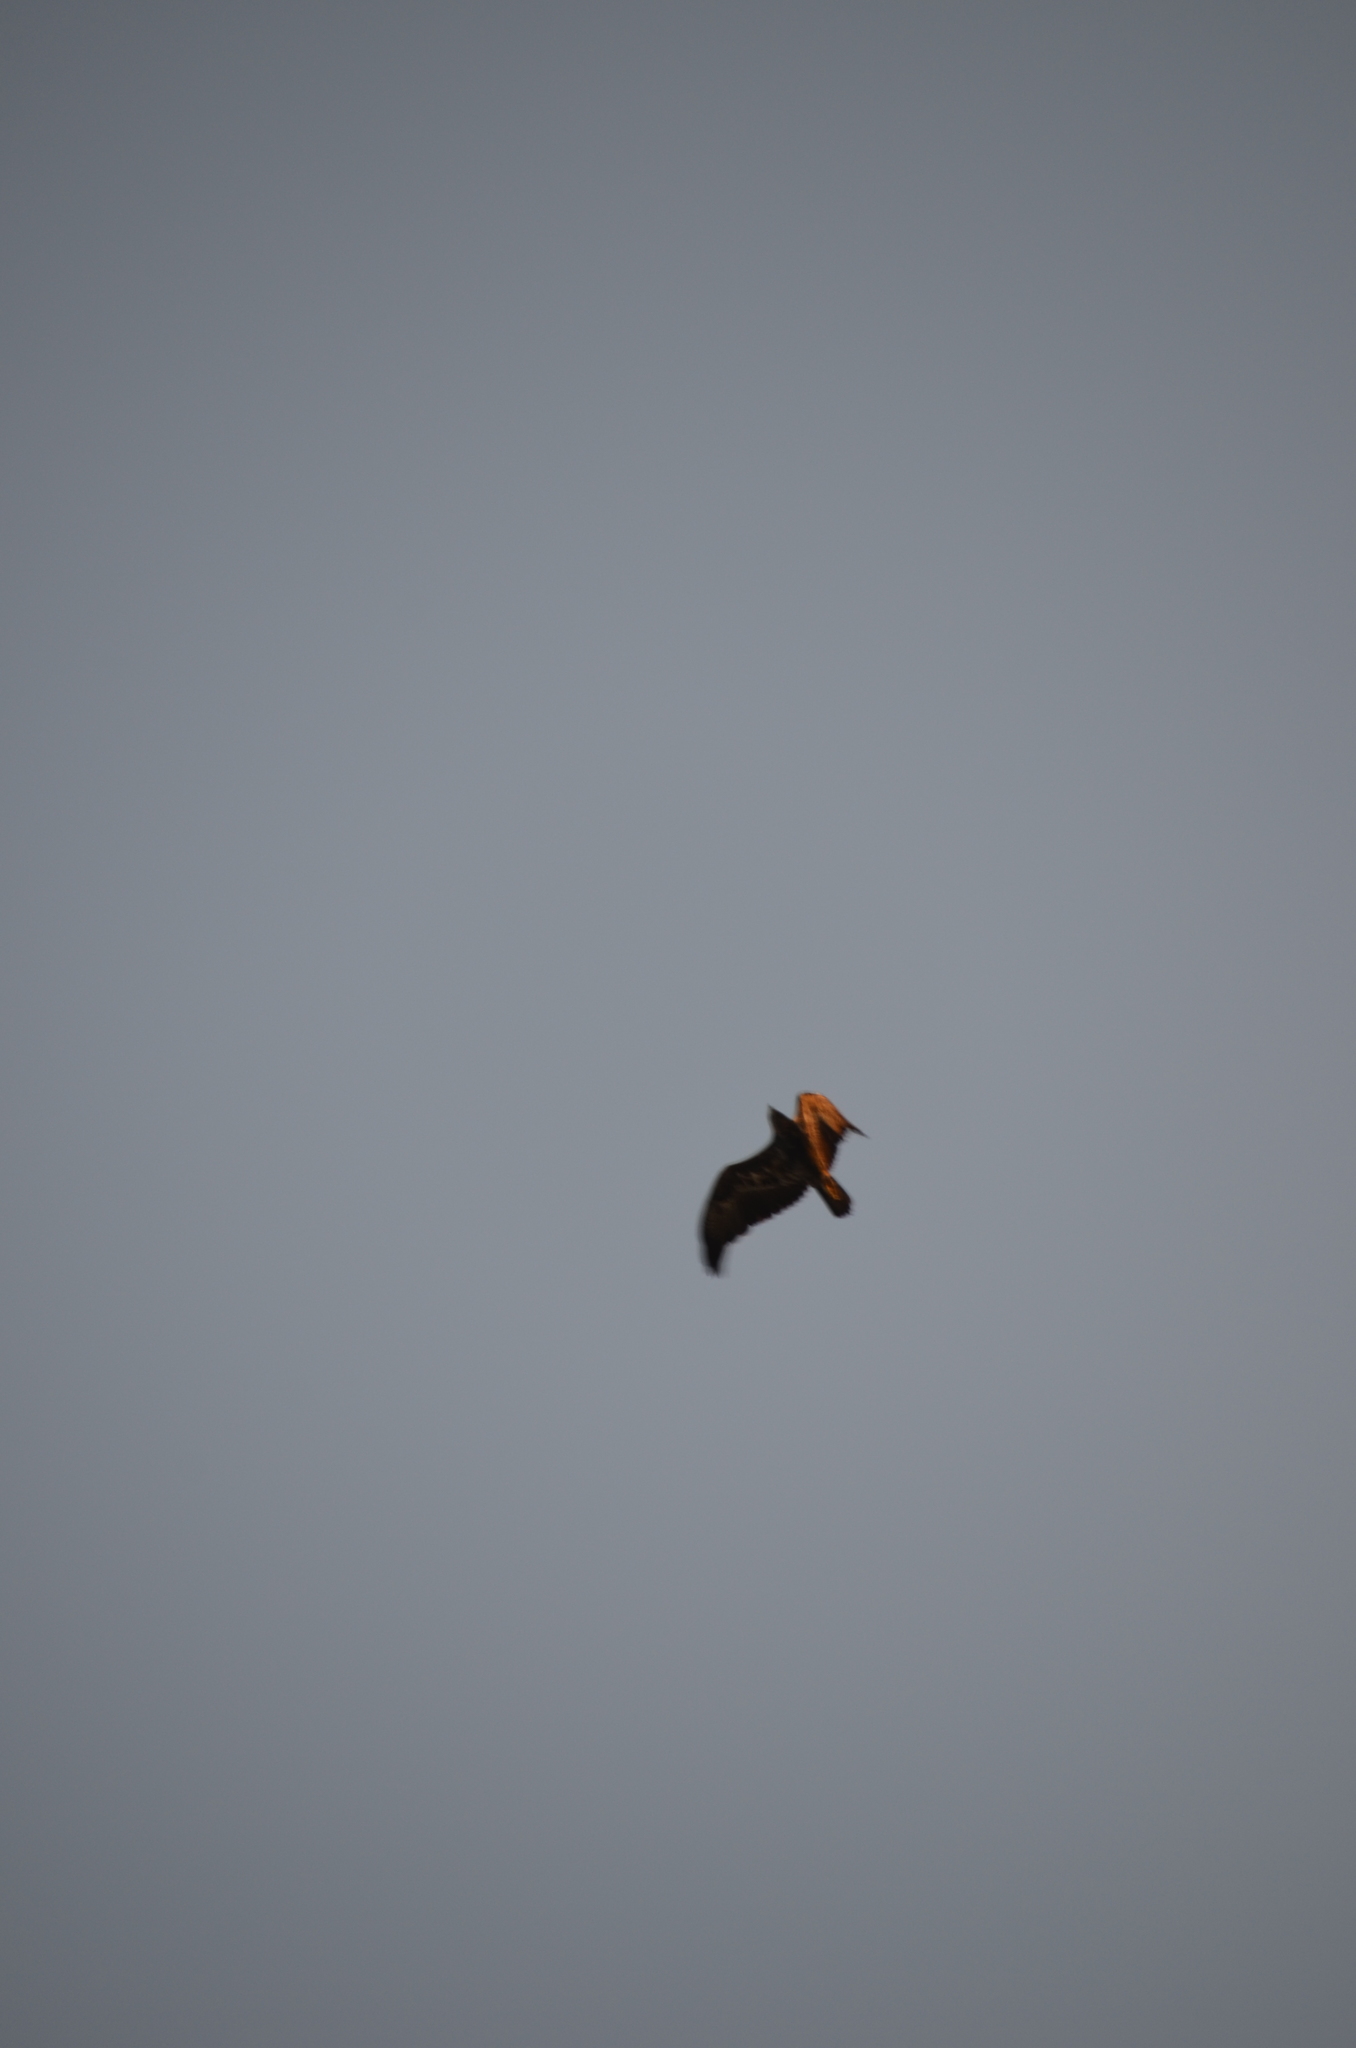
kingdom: Animalia
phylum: Chordata
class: Aves
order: Accipitriformes
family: Accipitridae
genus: Geranoaetus
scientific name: Geranoaetus melanoleucus
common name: Black-chested buzzard-eagle
